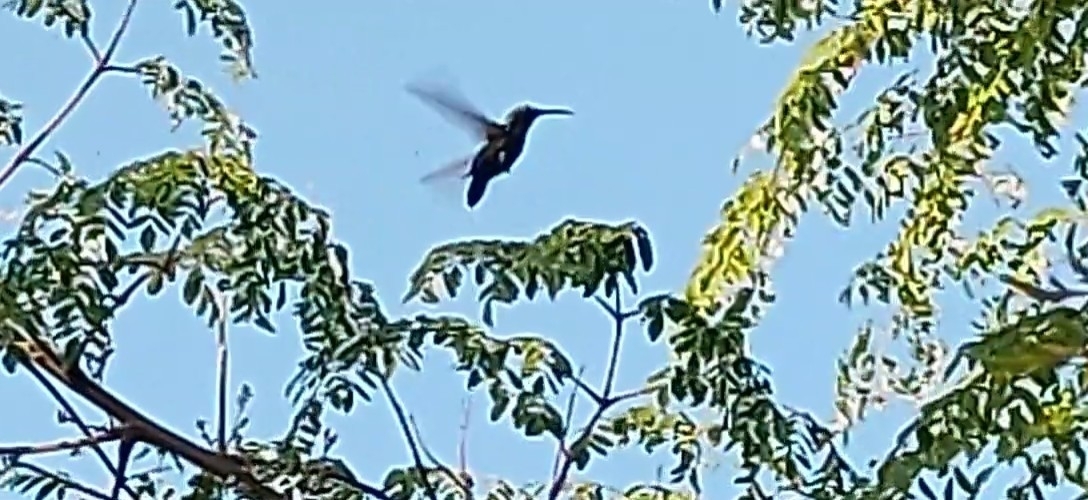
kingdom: Animalia
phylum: Chordata
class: Aves
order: Apodiformes
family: Trochilidae
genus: Eulampis
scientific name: Eulampis holosericeus
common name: Green-throated carib
